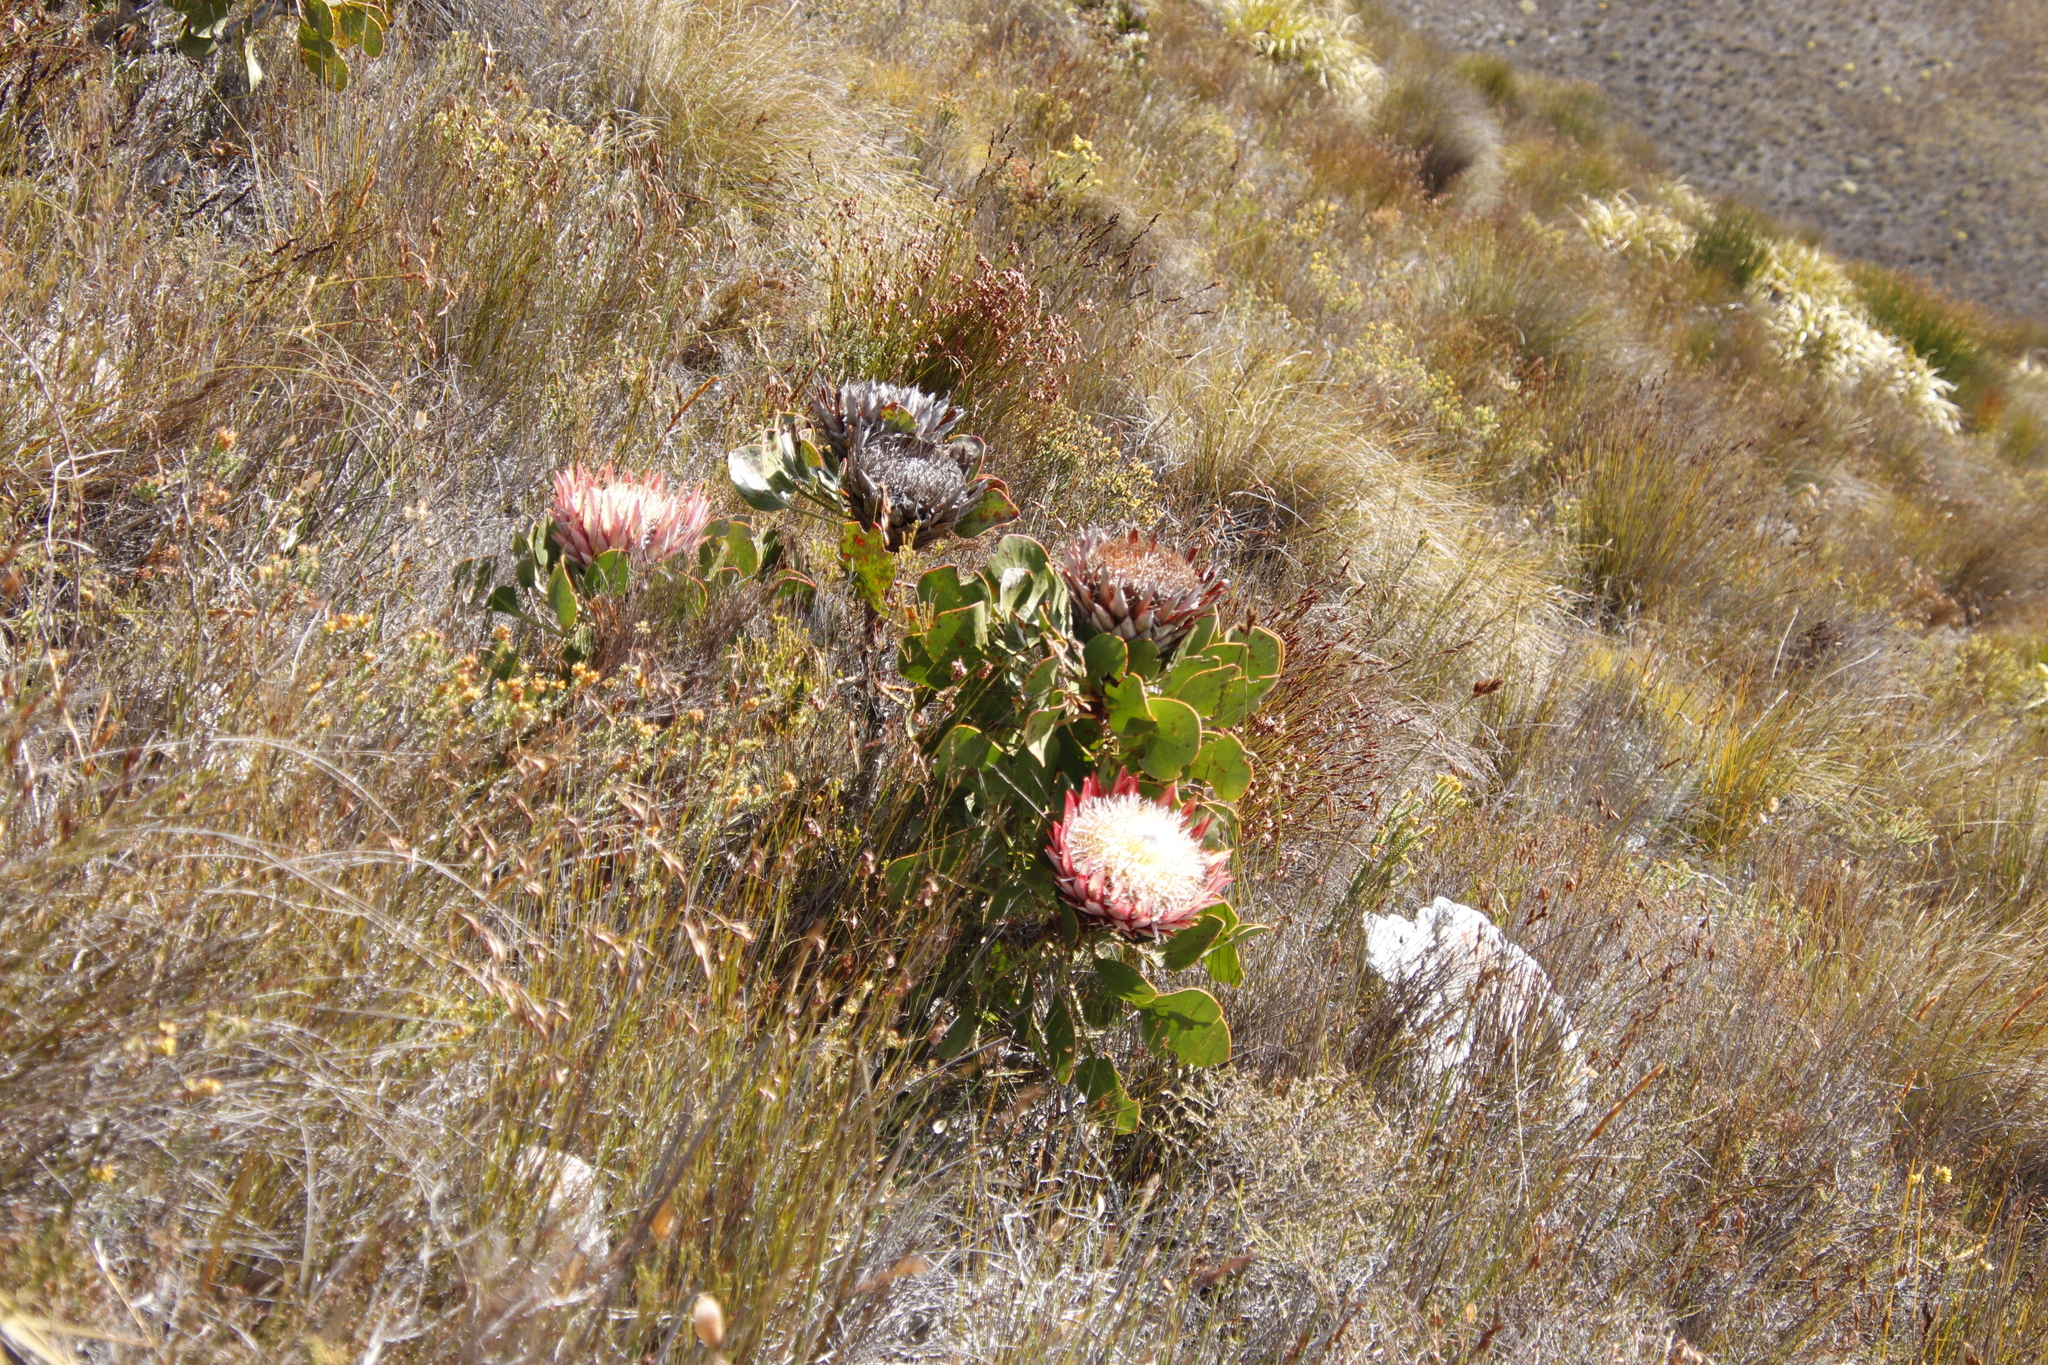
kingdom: Plantae
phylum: Tracheophyta
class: Magnoliopsida
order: Proteales
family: Proteaceae
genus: Protea
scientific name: Protea cynaroides
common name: King protea
